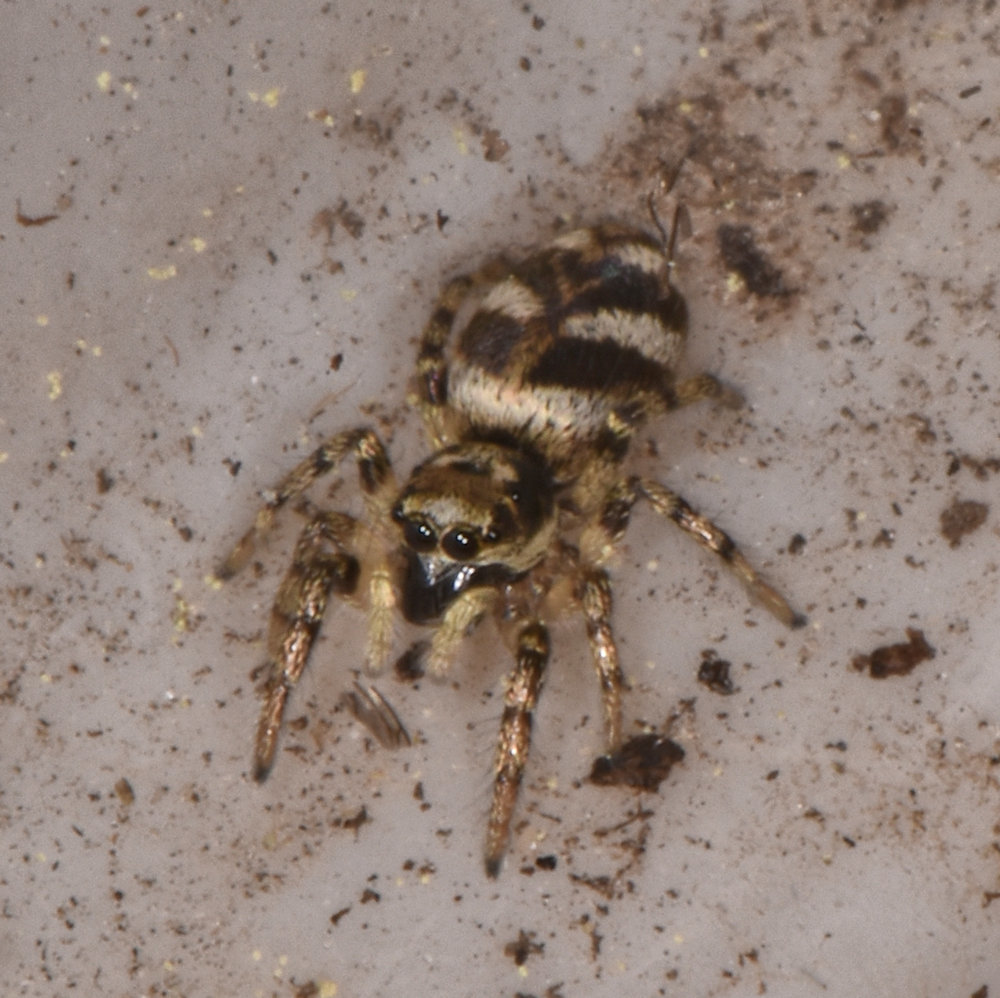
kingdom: Animalia
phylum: Arthropoda
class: Arachnida
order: Araneae
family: Salticidae
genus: Salticus
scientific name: Salticus scenicus
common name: Zebra jumper
